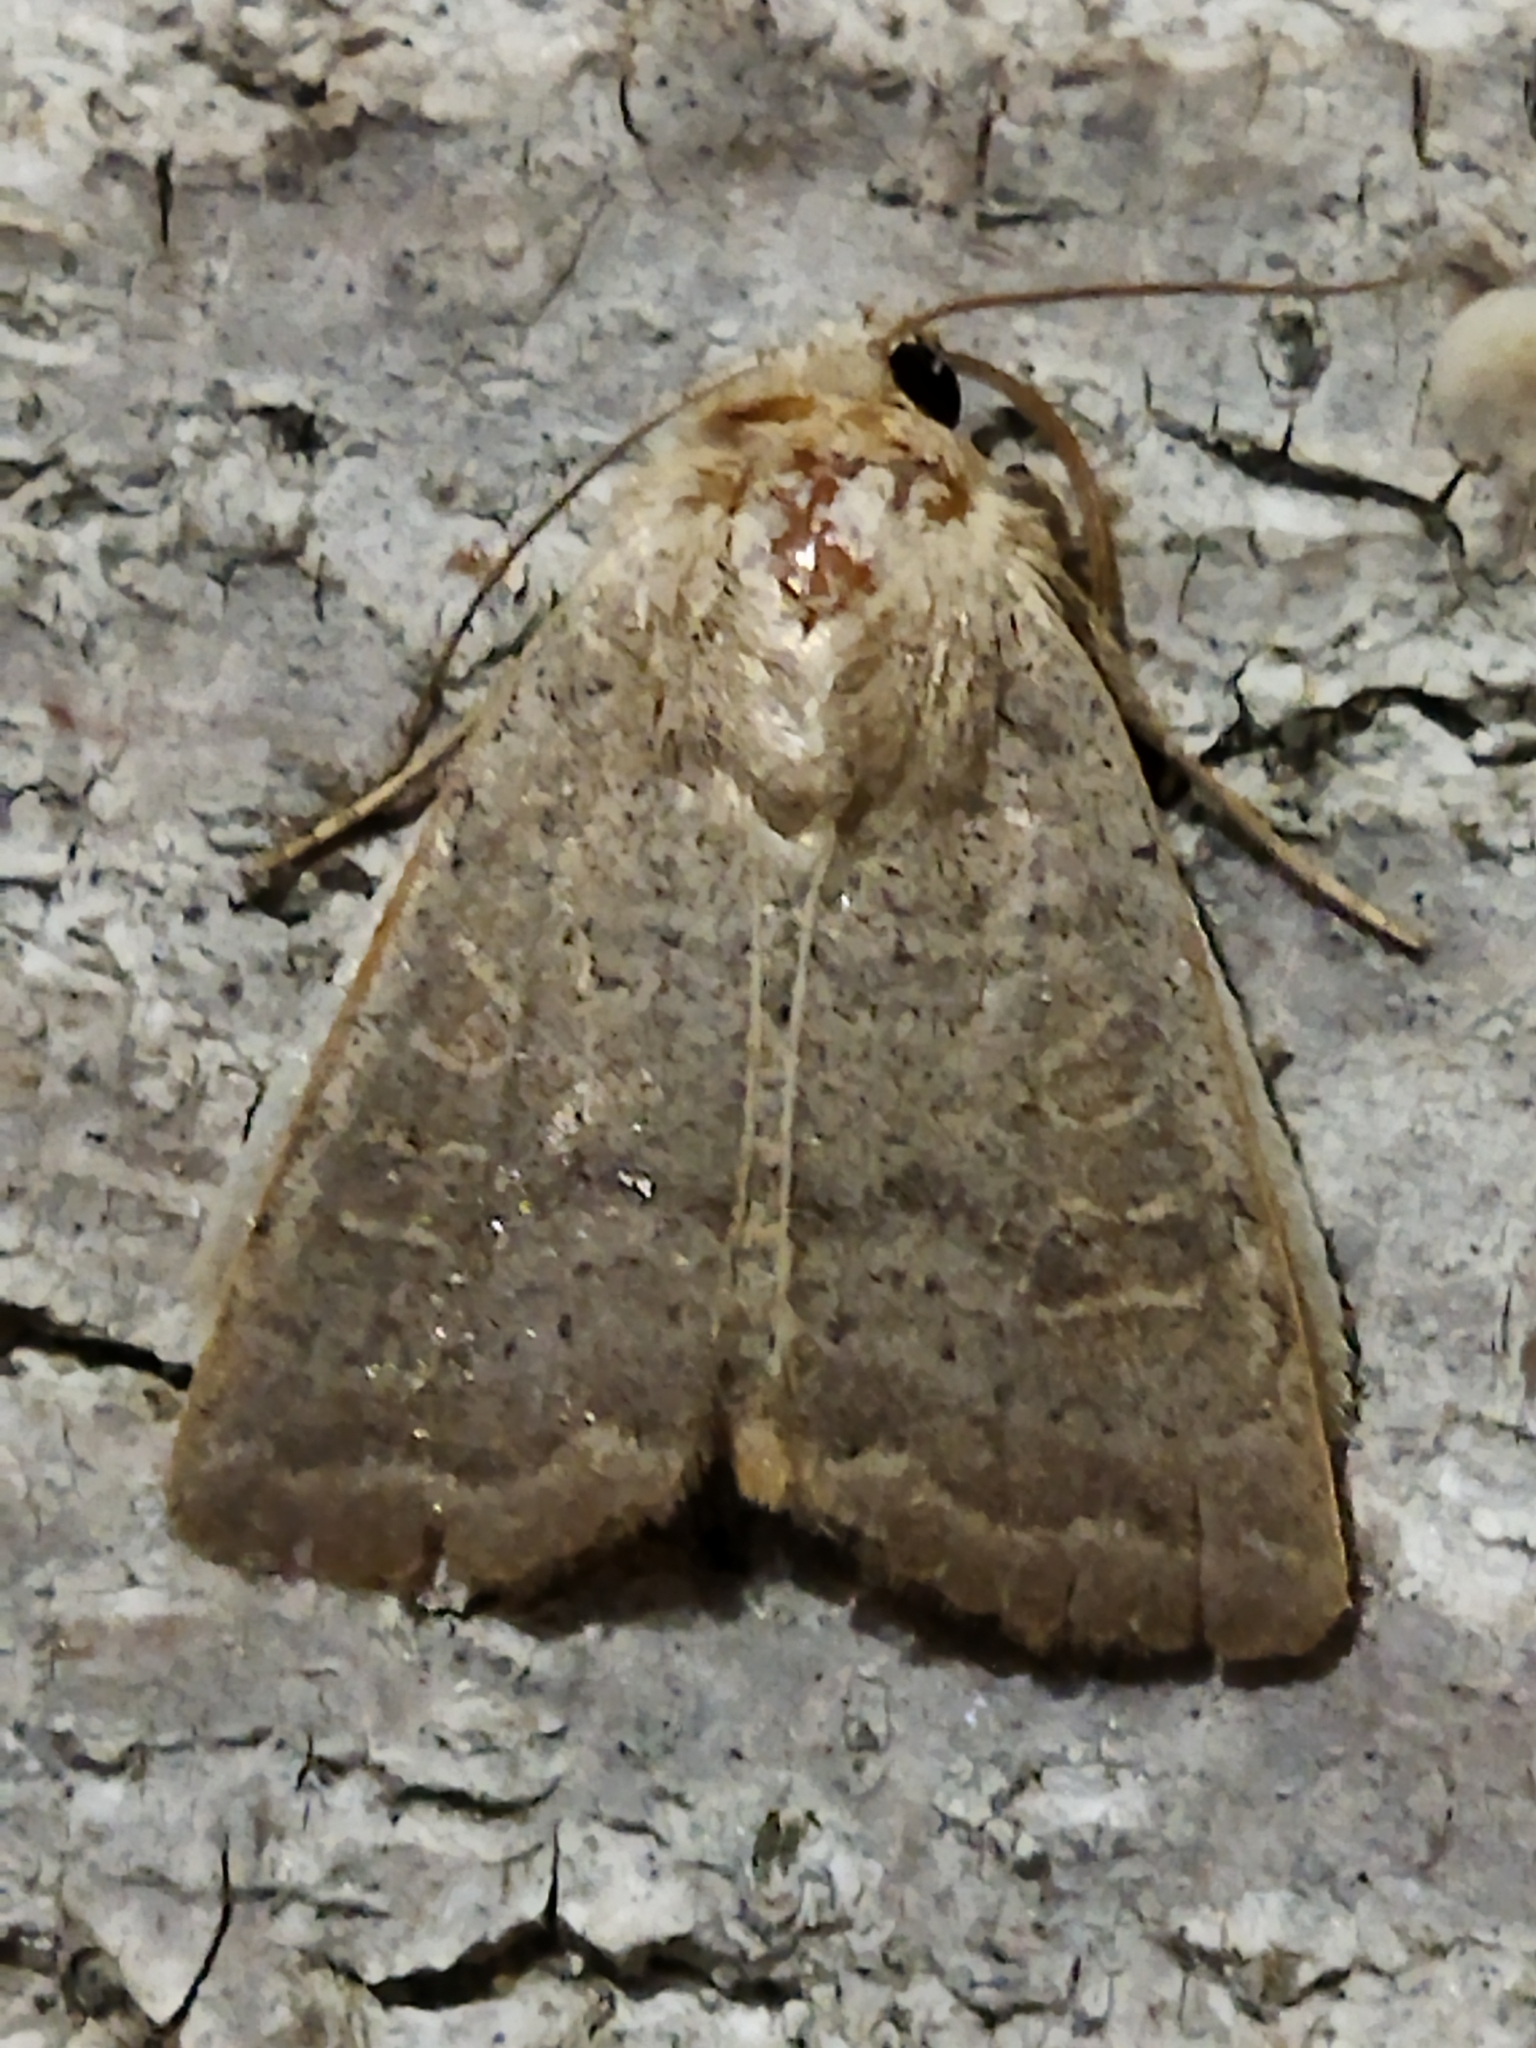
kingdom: Animalia
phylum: Arthropoda
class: Insecta
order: Lepidoptera
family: Noctuidae
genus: Hoplodrina
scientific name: Hoplodrina ambigua
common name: Vine's rustic
